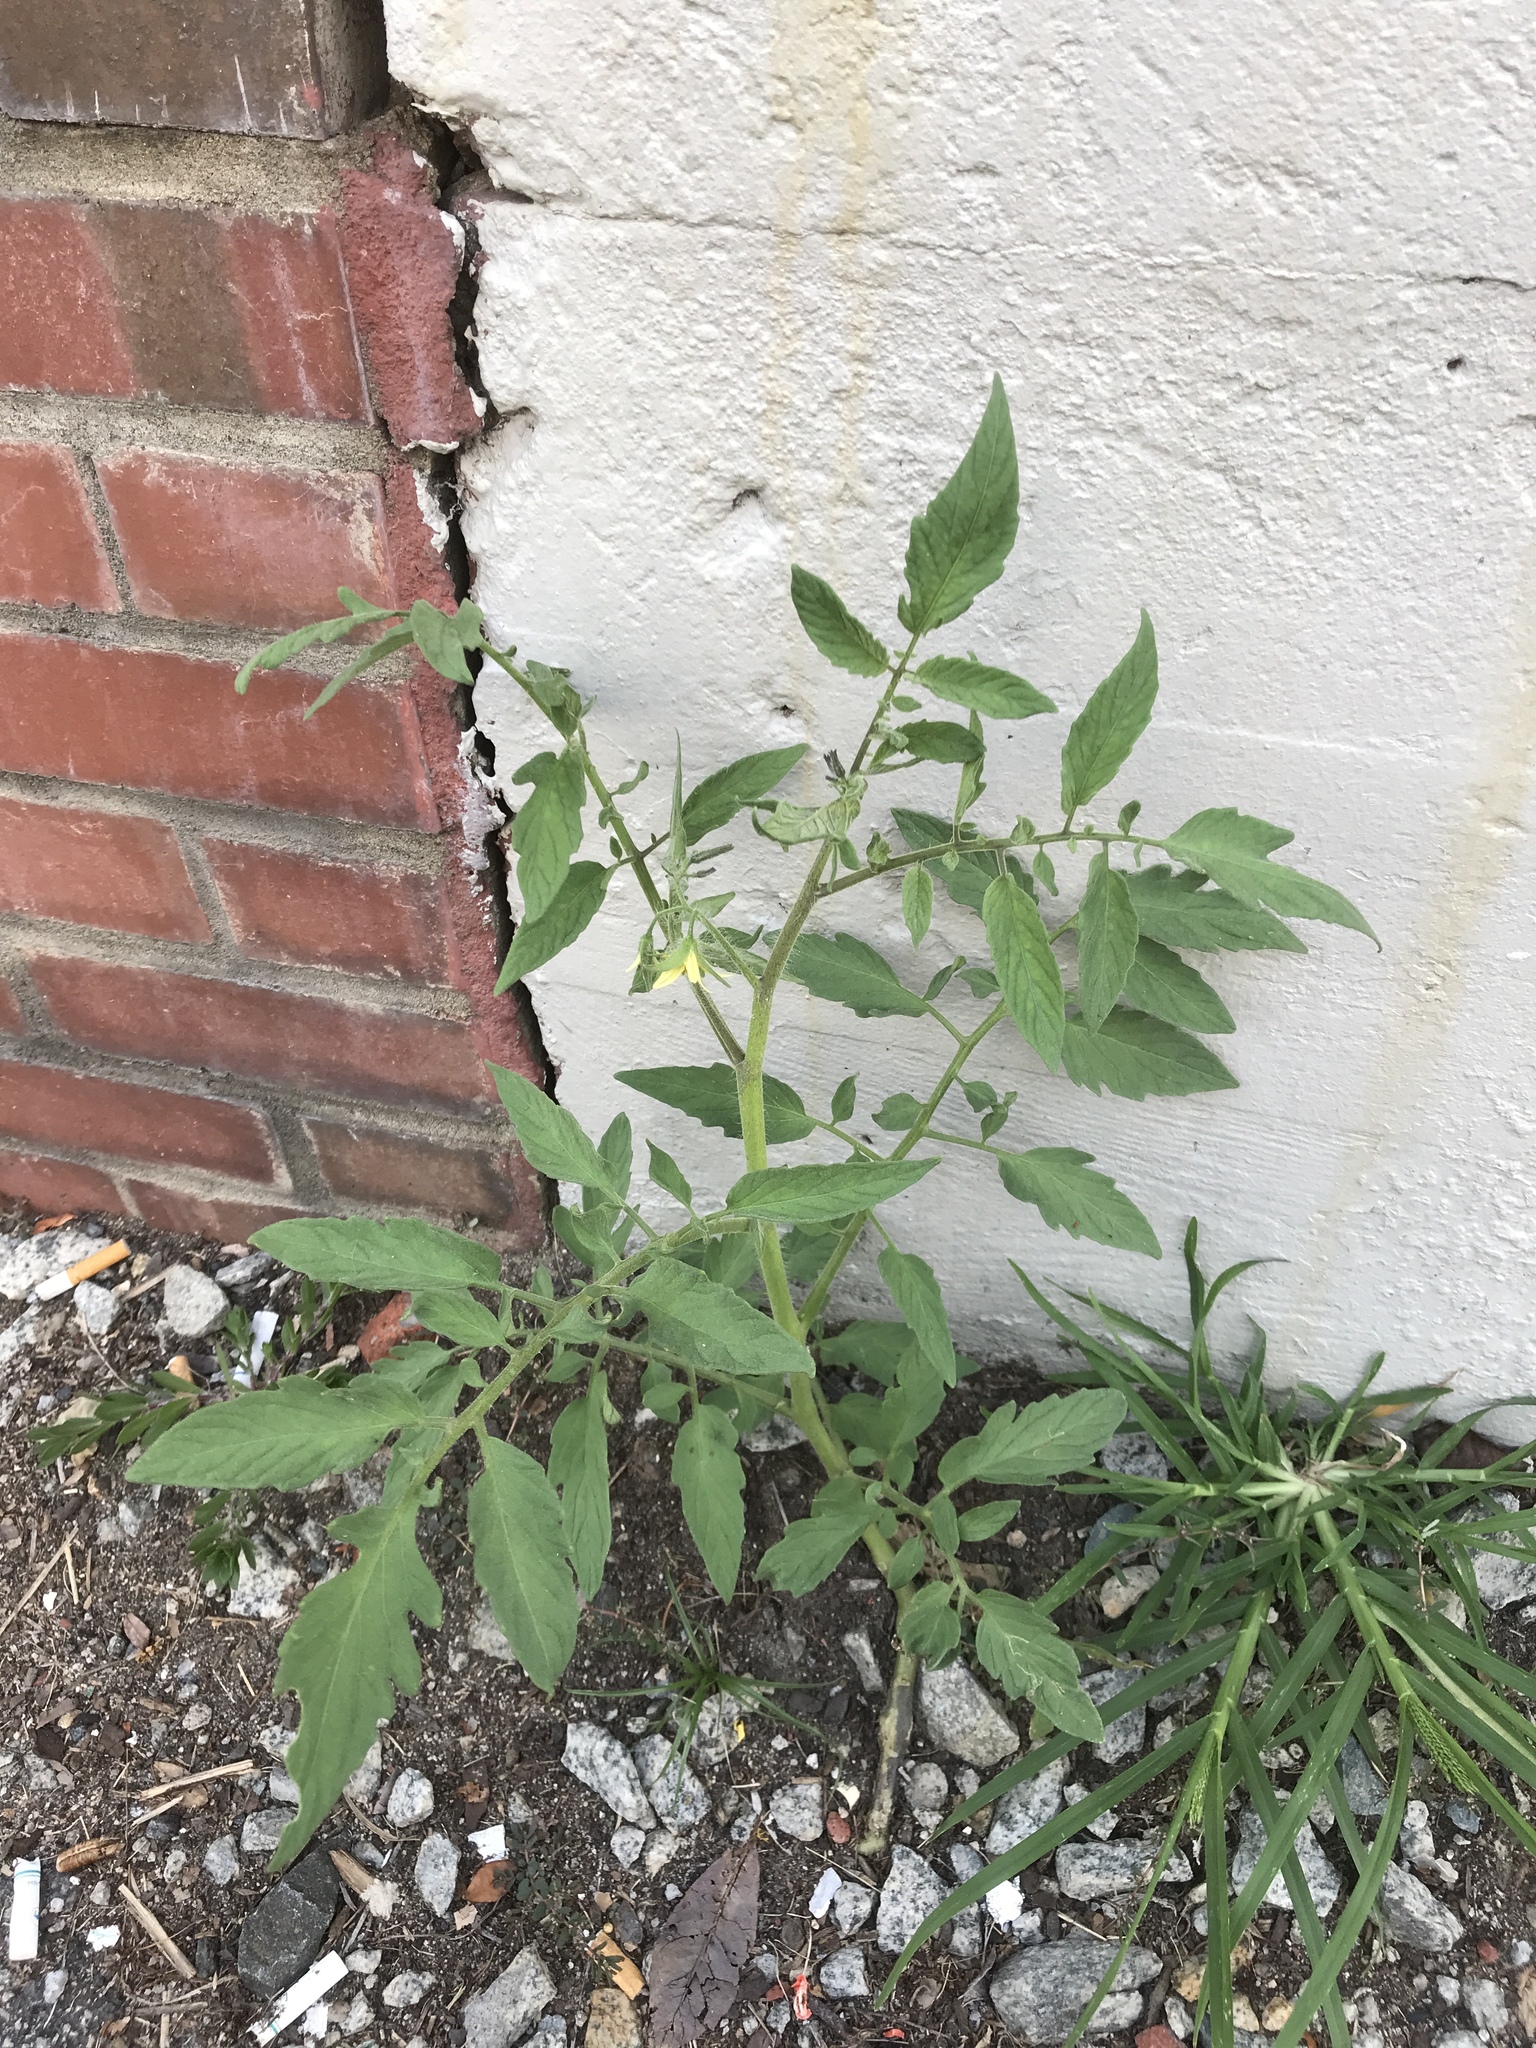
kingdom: Plantae
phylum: Tracheophyta
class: Magnoliopsida
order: Solanales
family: Solanaceae
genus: Solanum
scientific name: Solanum lycopersicum
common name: Garden tomato
